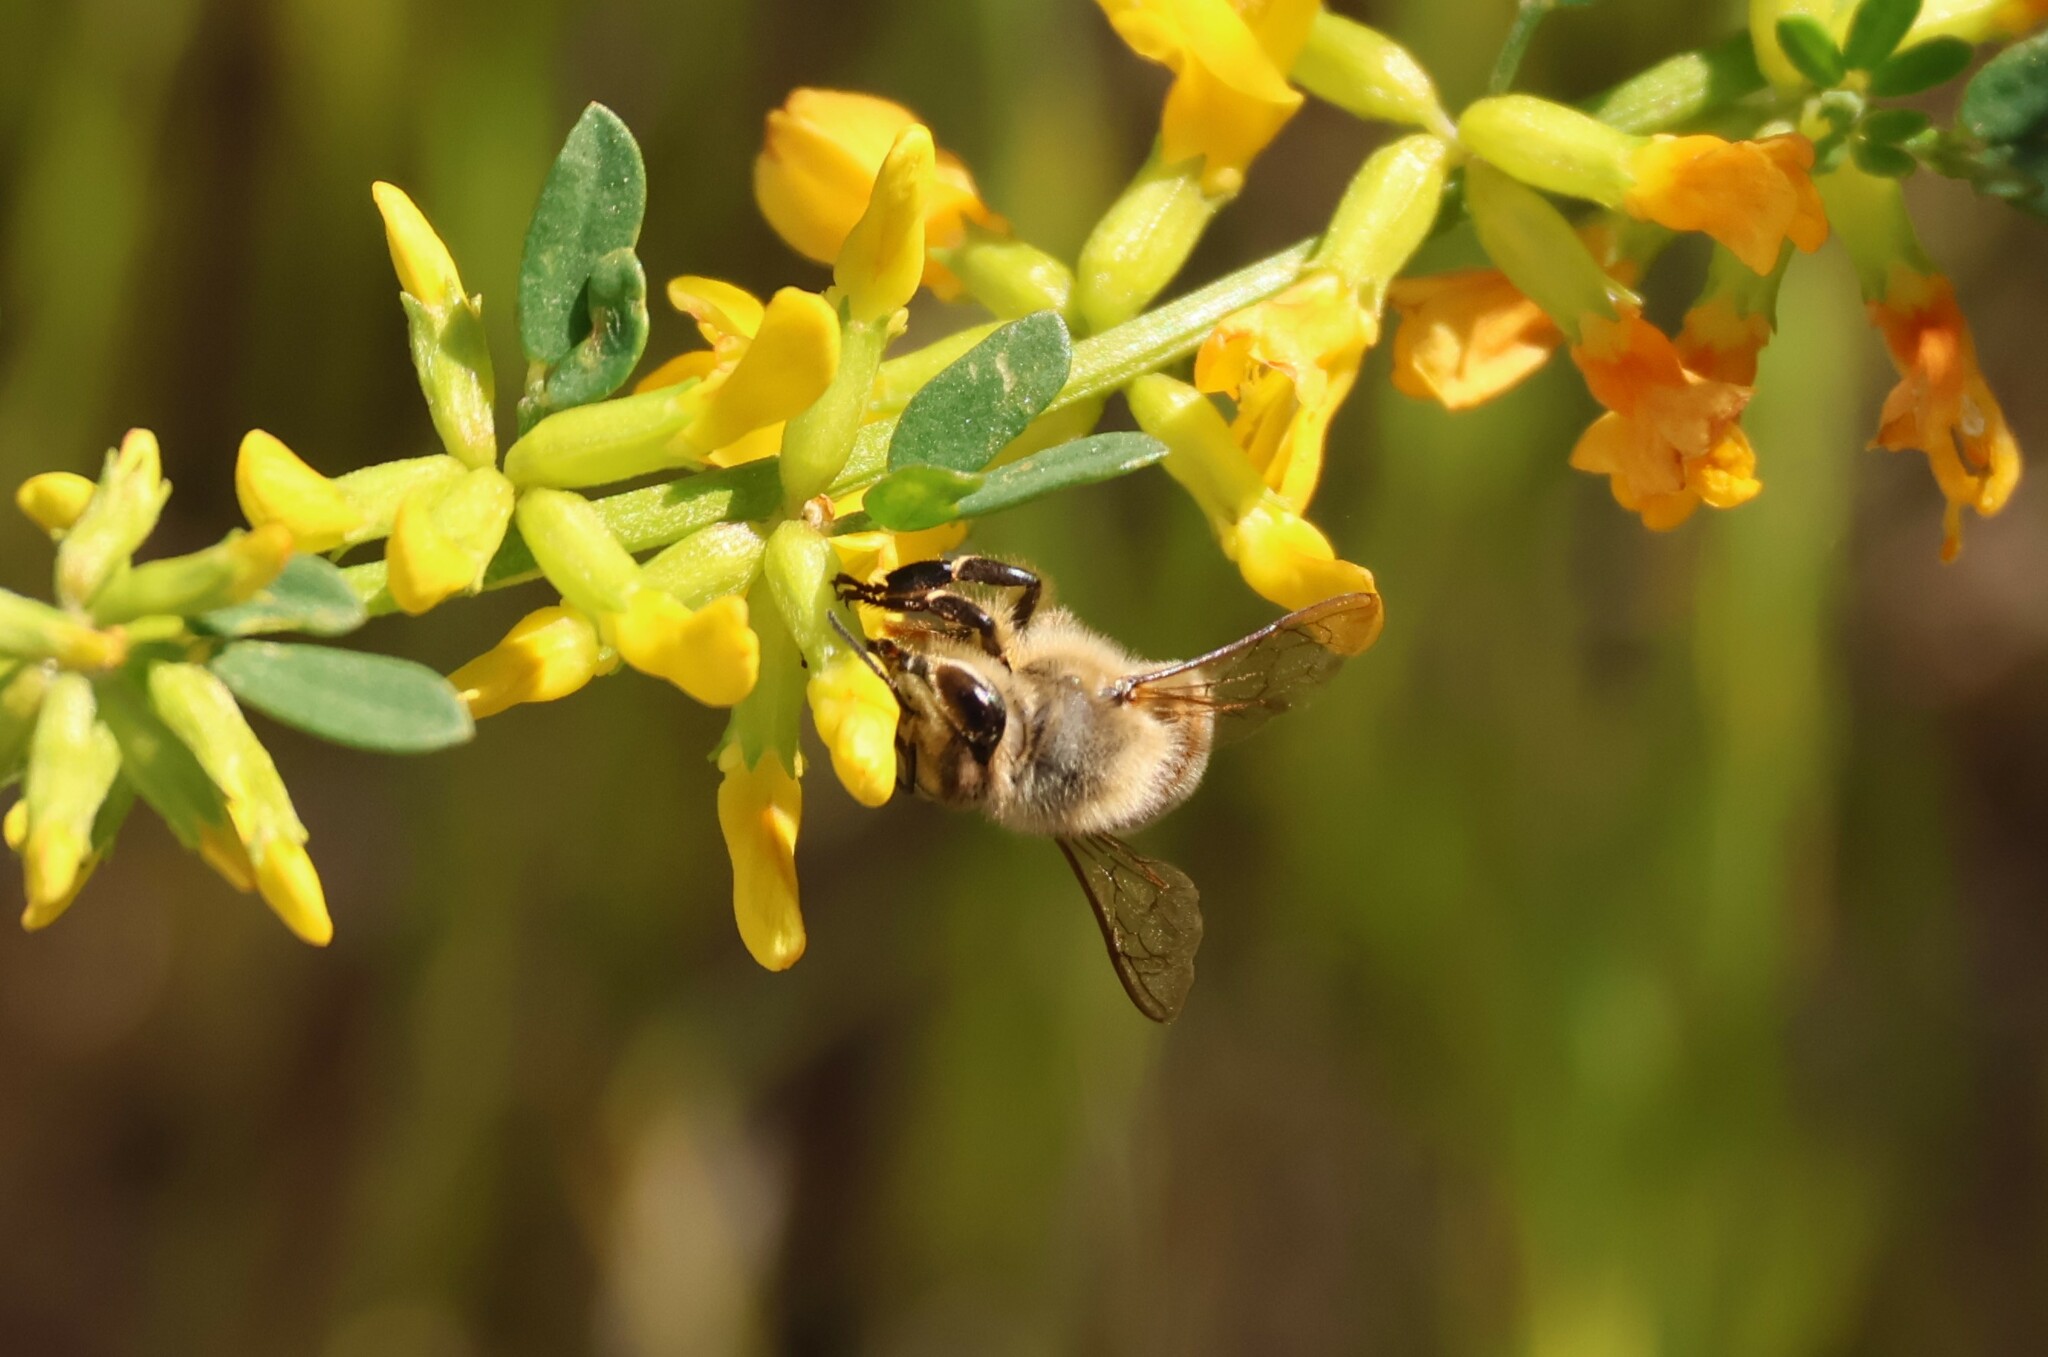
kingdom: Animalia
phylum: Arthropoda
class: Insecta
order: Hymenoptera
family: Apidae
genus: Apis
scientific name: Apis mellifera
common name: Honey bee
